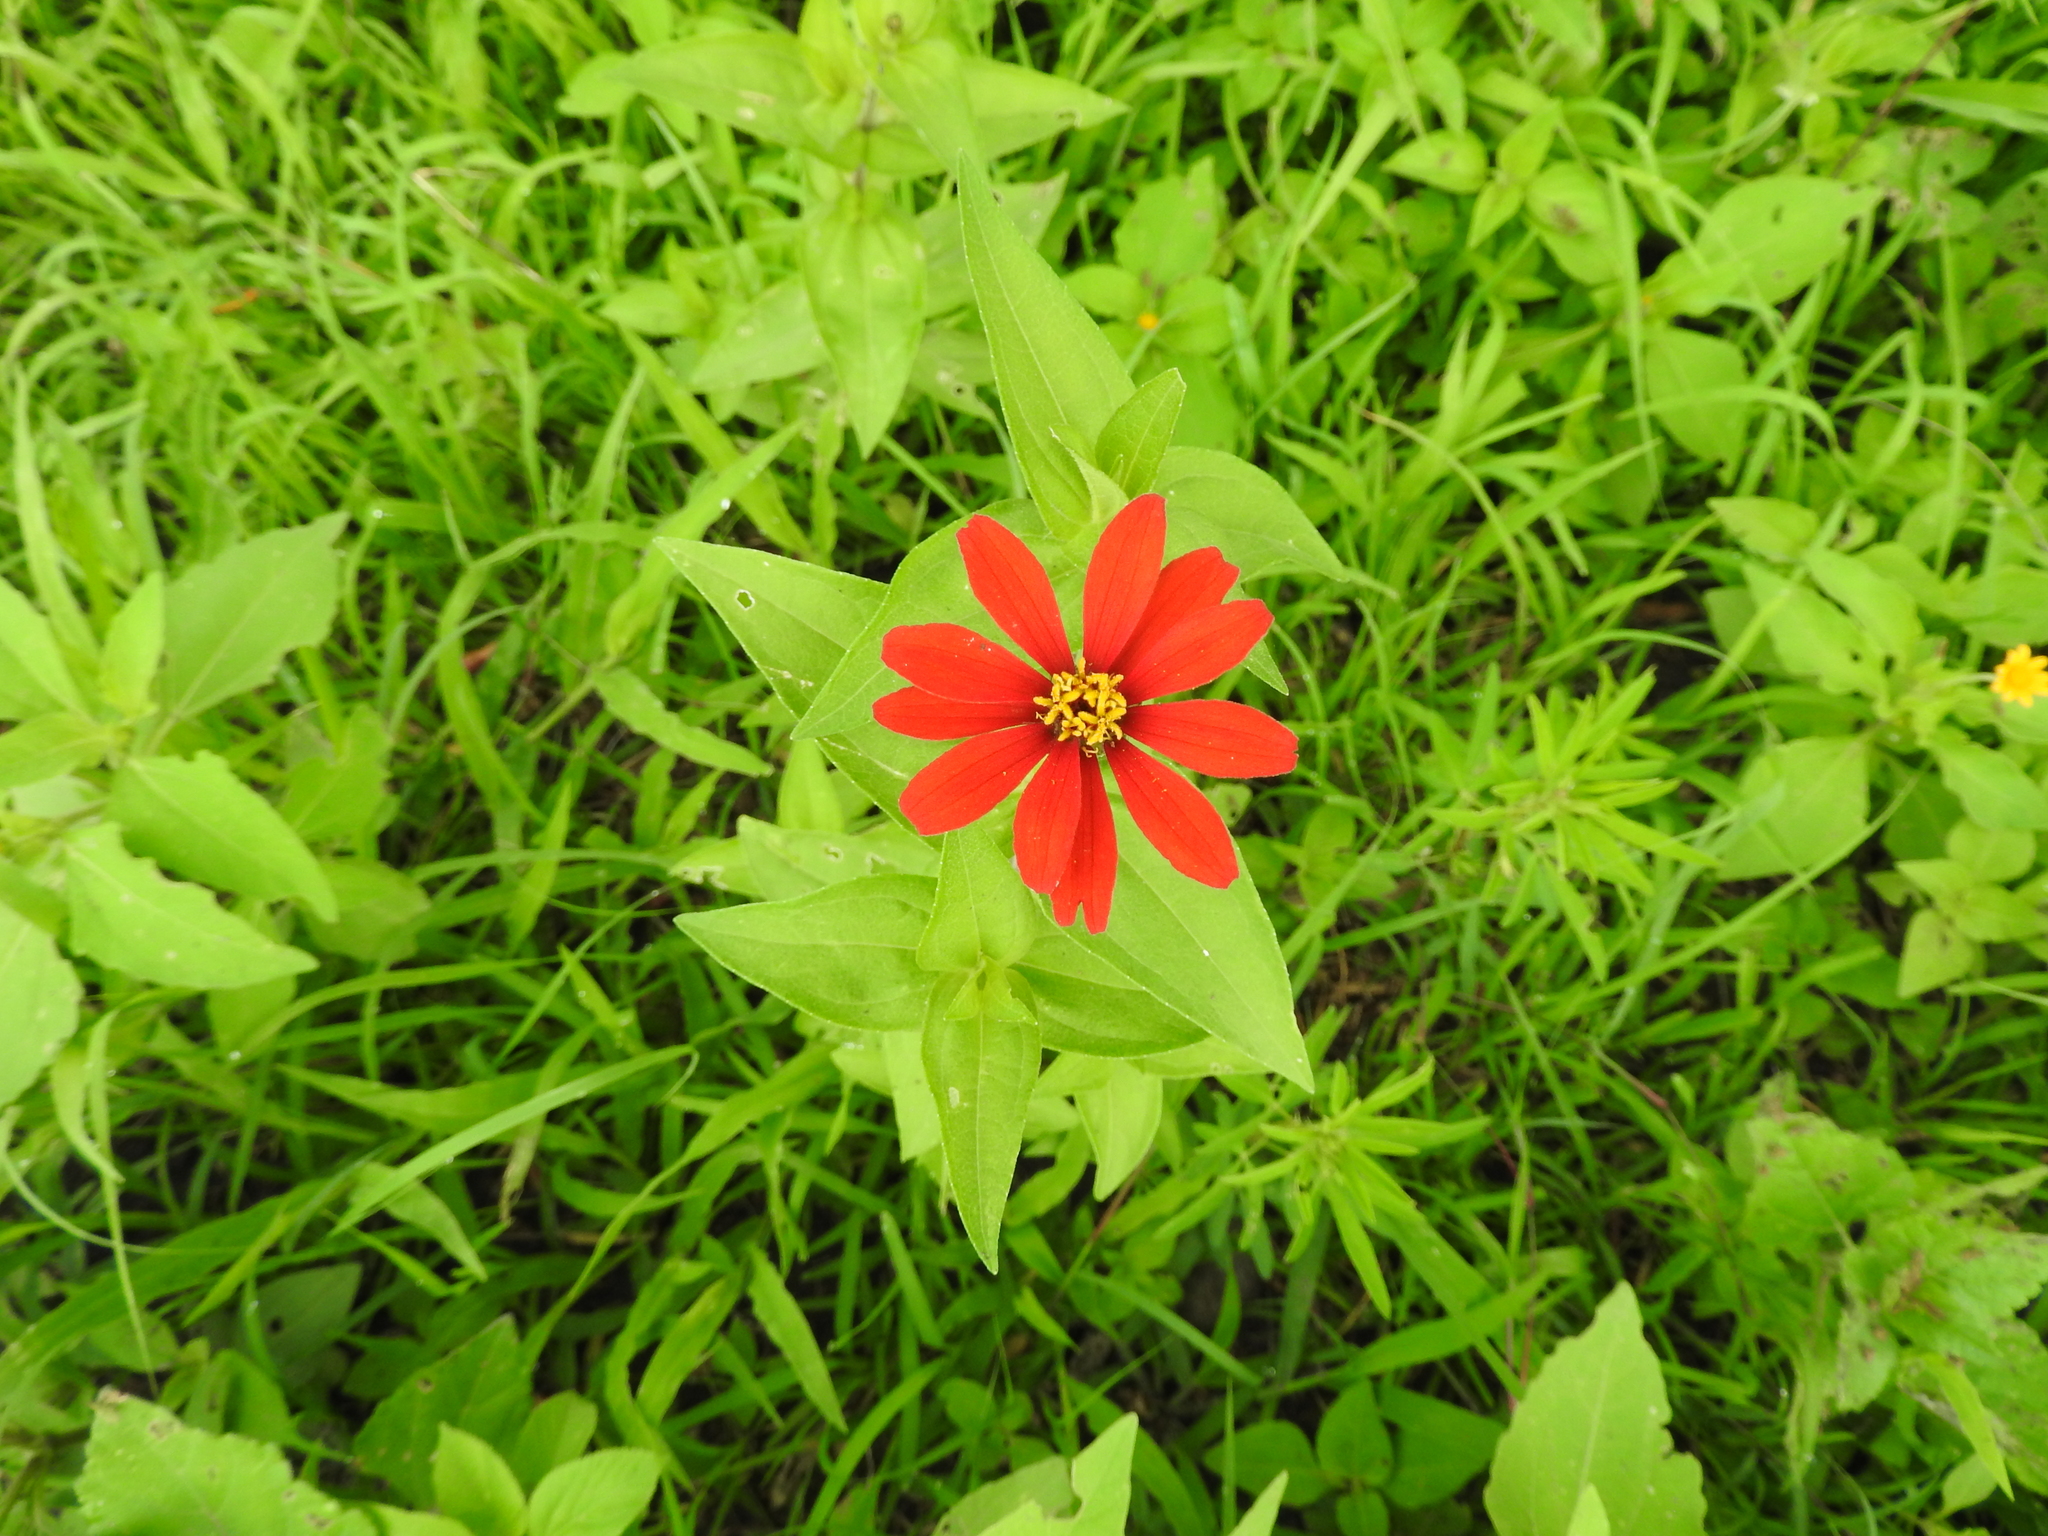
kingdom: Plantae
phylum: Tracheophyta
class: Magnoliopsida
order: Asterales
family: Asteraceae
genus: Zinnia
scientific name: Zinnia peruviana
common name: Peruvian zinnia
